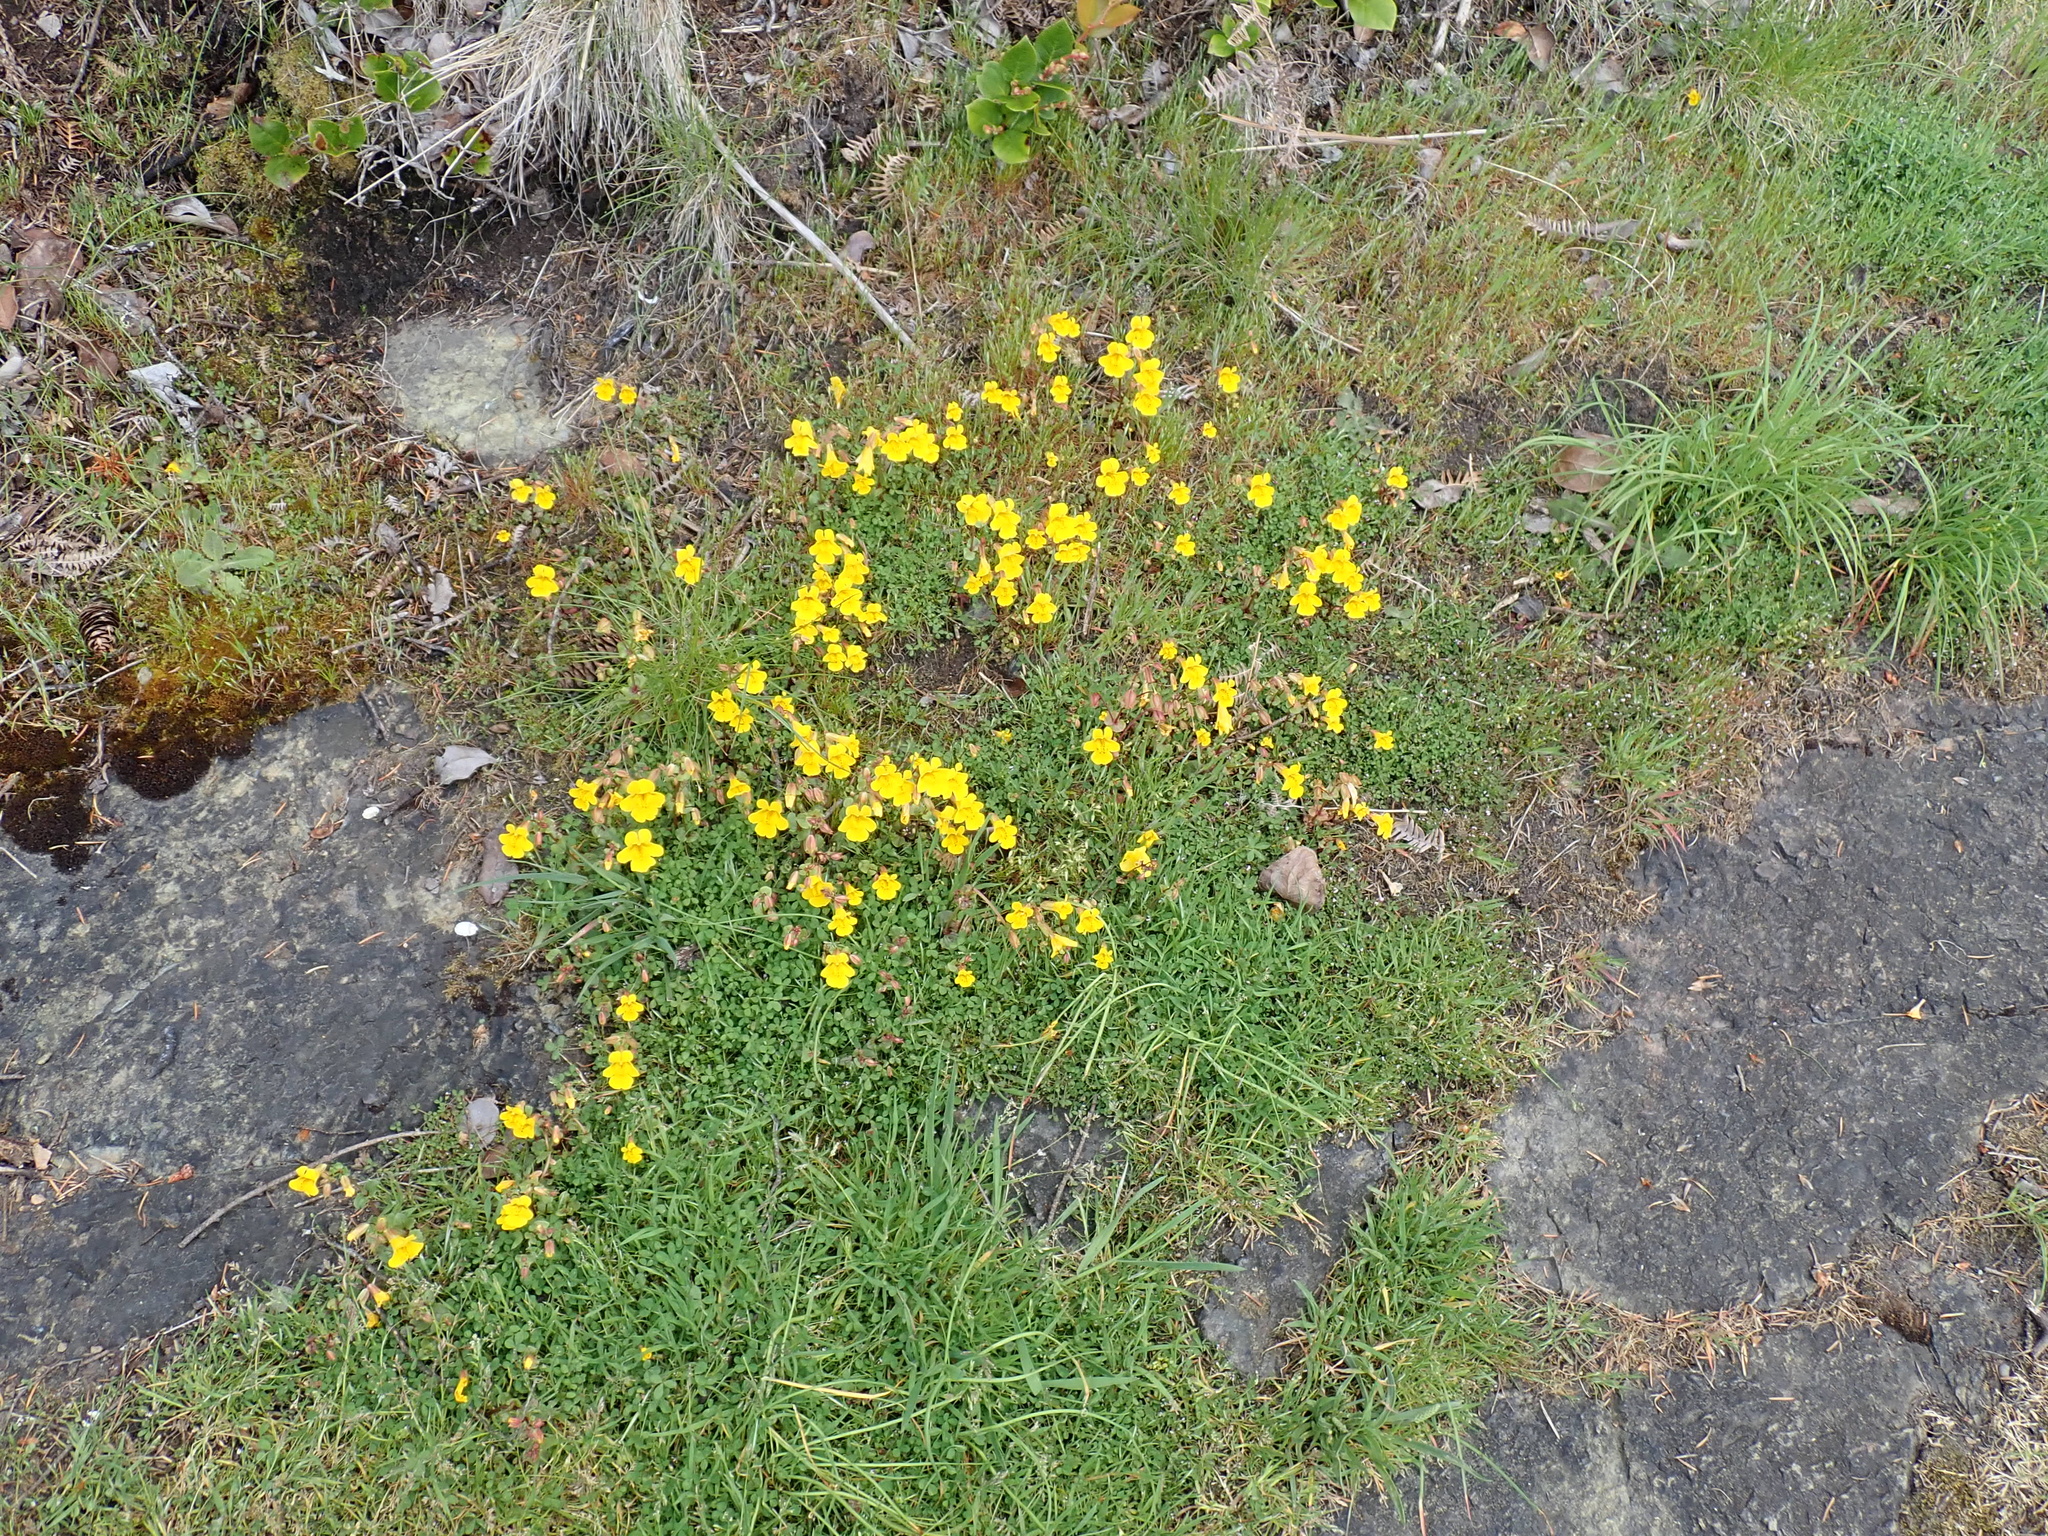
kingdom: Plantae
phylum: Tracheophyta
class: Magnoliopsida
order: Lamiales
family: Phrymaceae
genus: Erythranthe
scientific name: Erythranthe microphylla
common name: Bentham's monkeyflower
